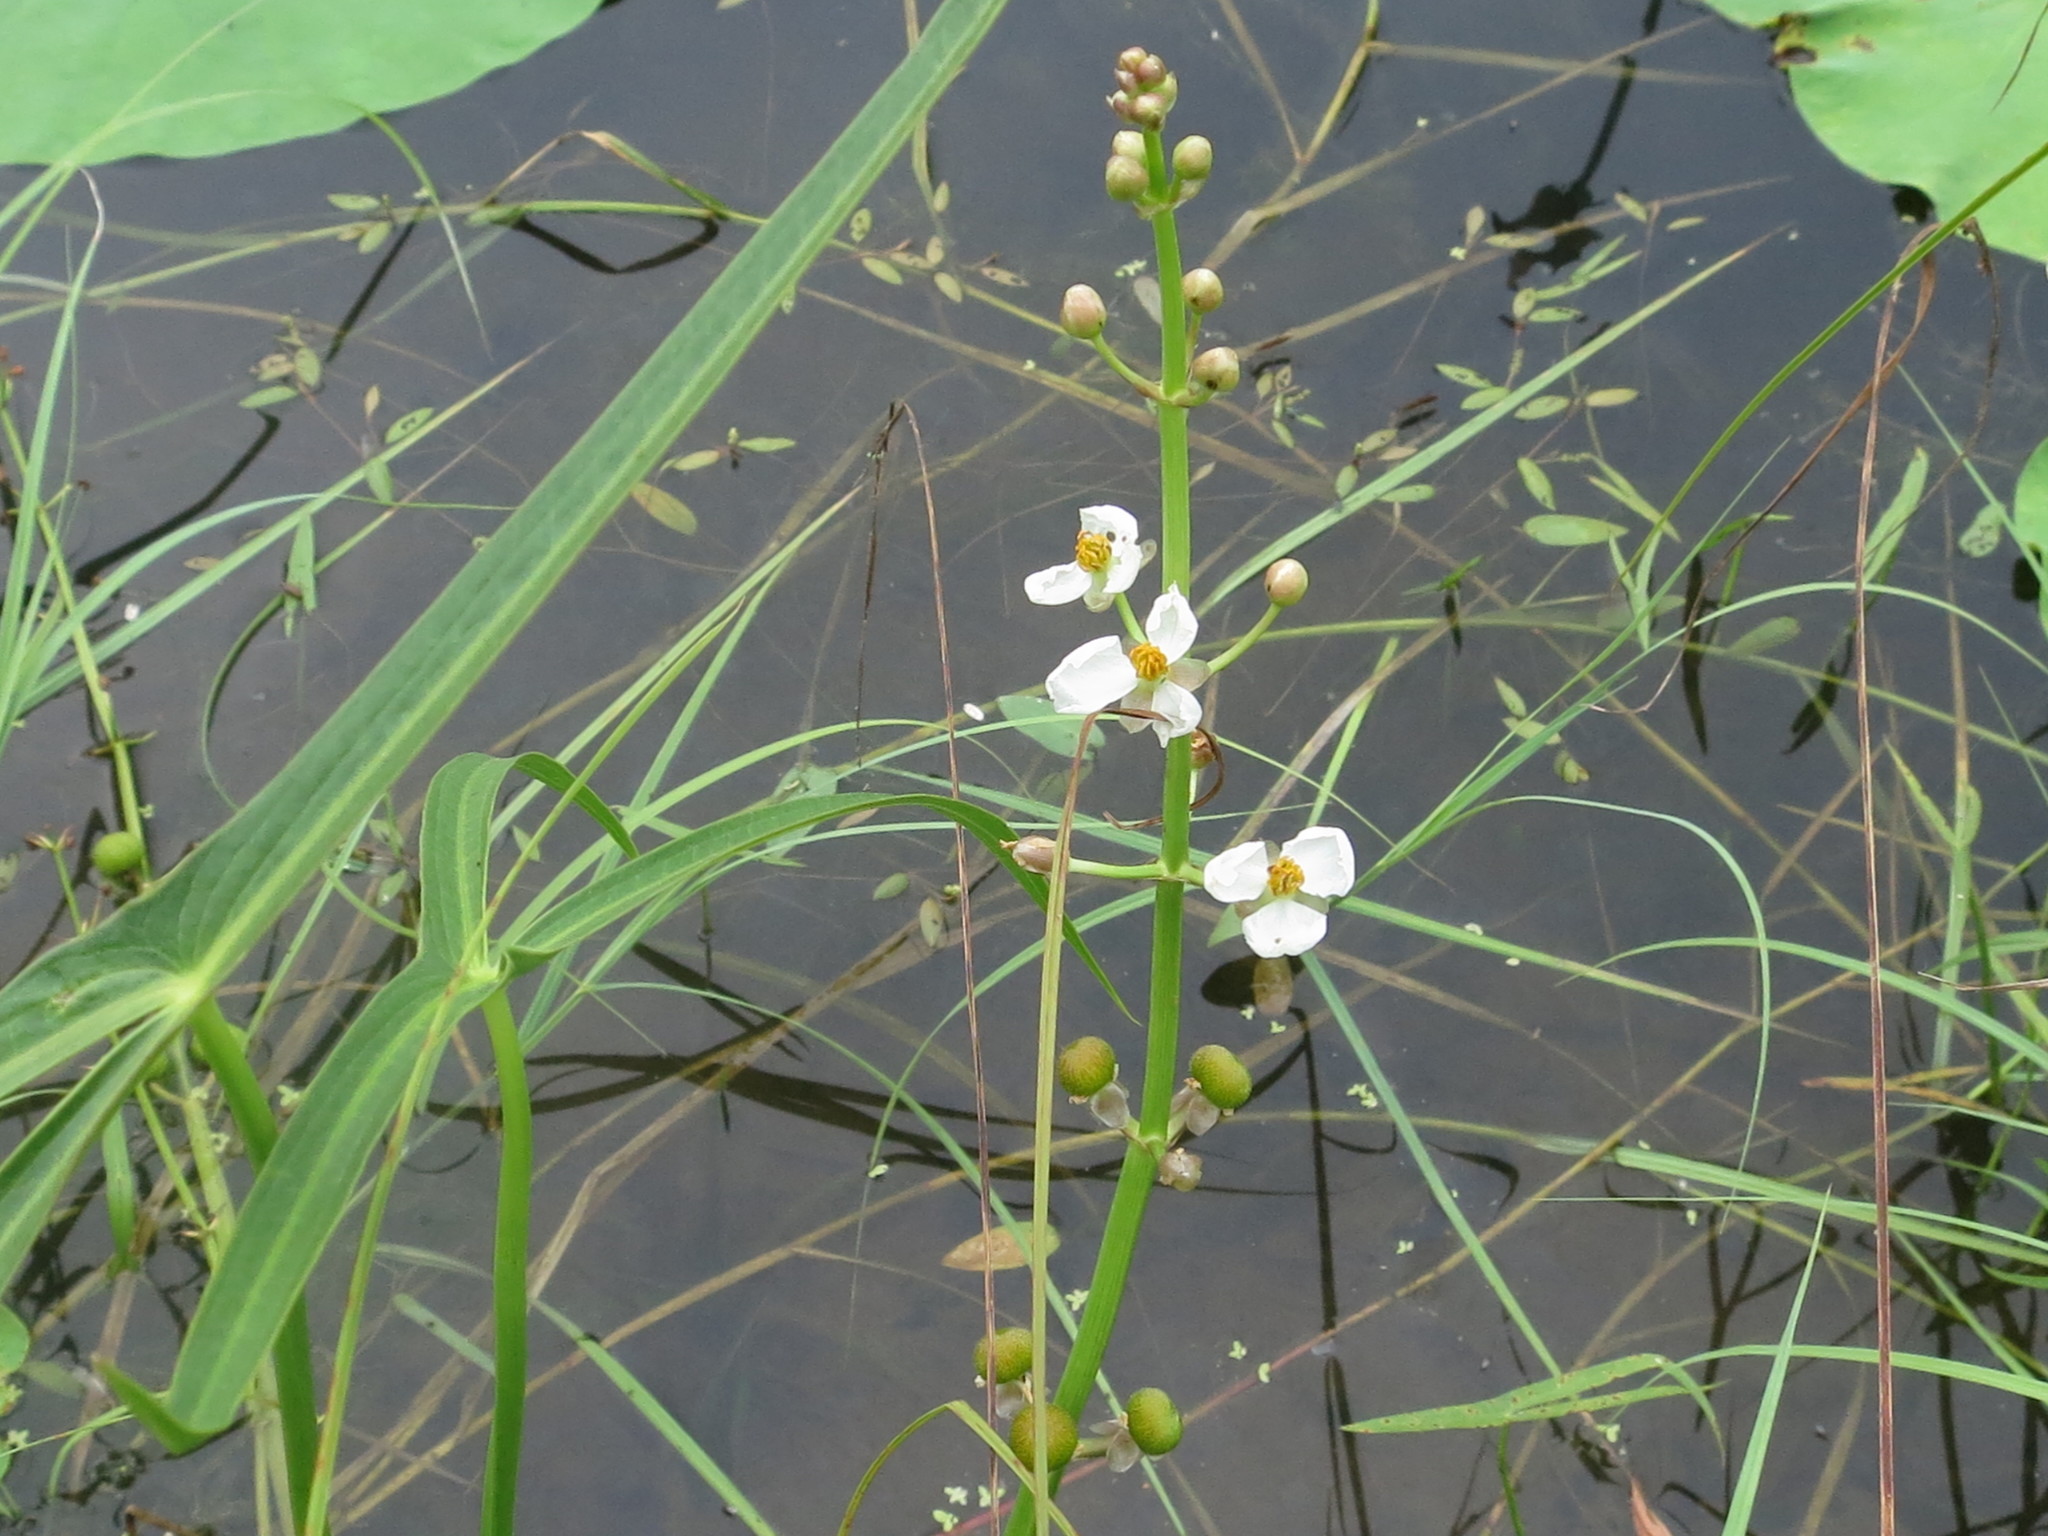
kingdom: Plantae
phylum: Tracheophyta
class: Liliopsida
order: Alismatales
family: Alismataceae
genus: Sagittaria
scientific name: Sagittaria trifolia
